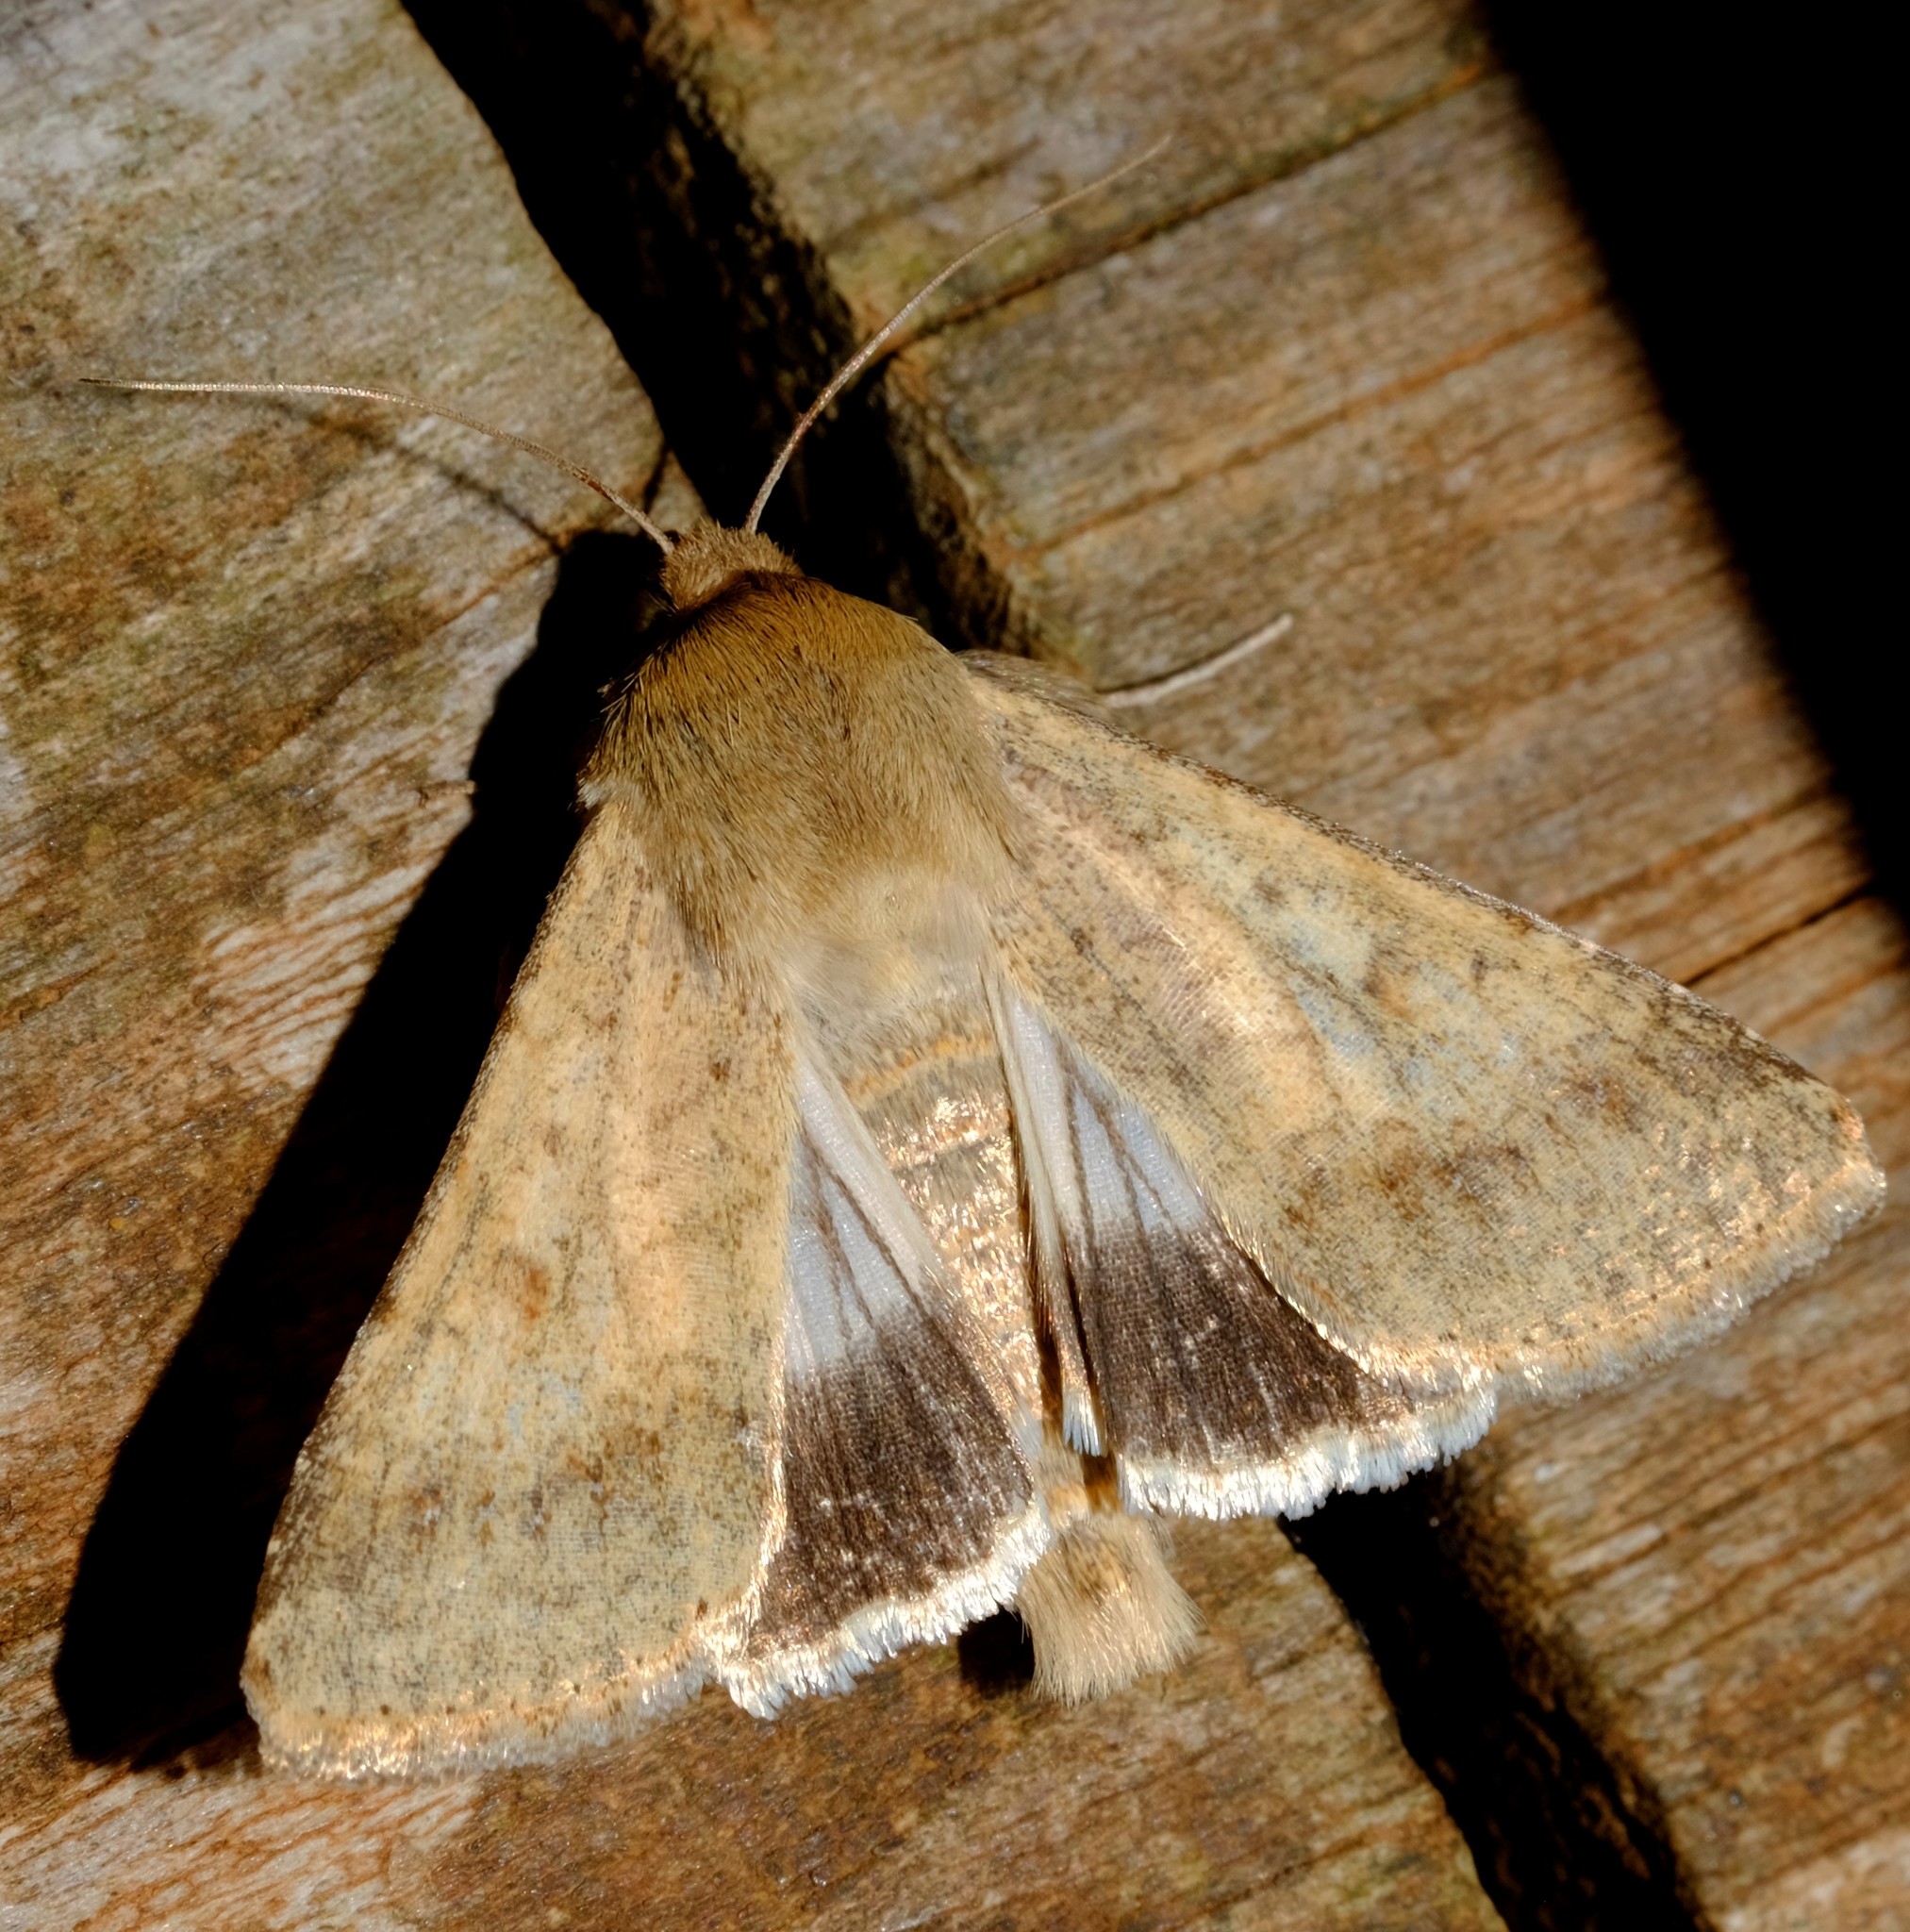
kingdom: Animalia
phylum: Arthropoda
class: Insecta
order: Lepidoptera
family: Noctuidae
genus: Helicoverpa
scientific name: Helicoverpa punctigera
